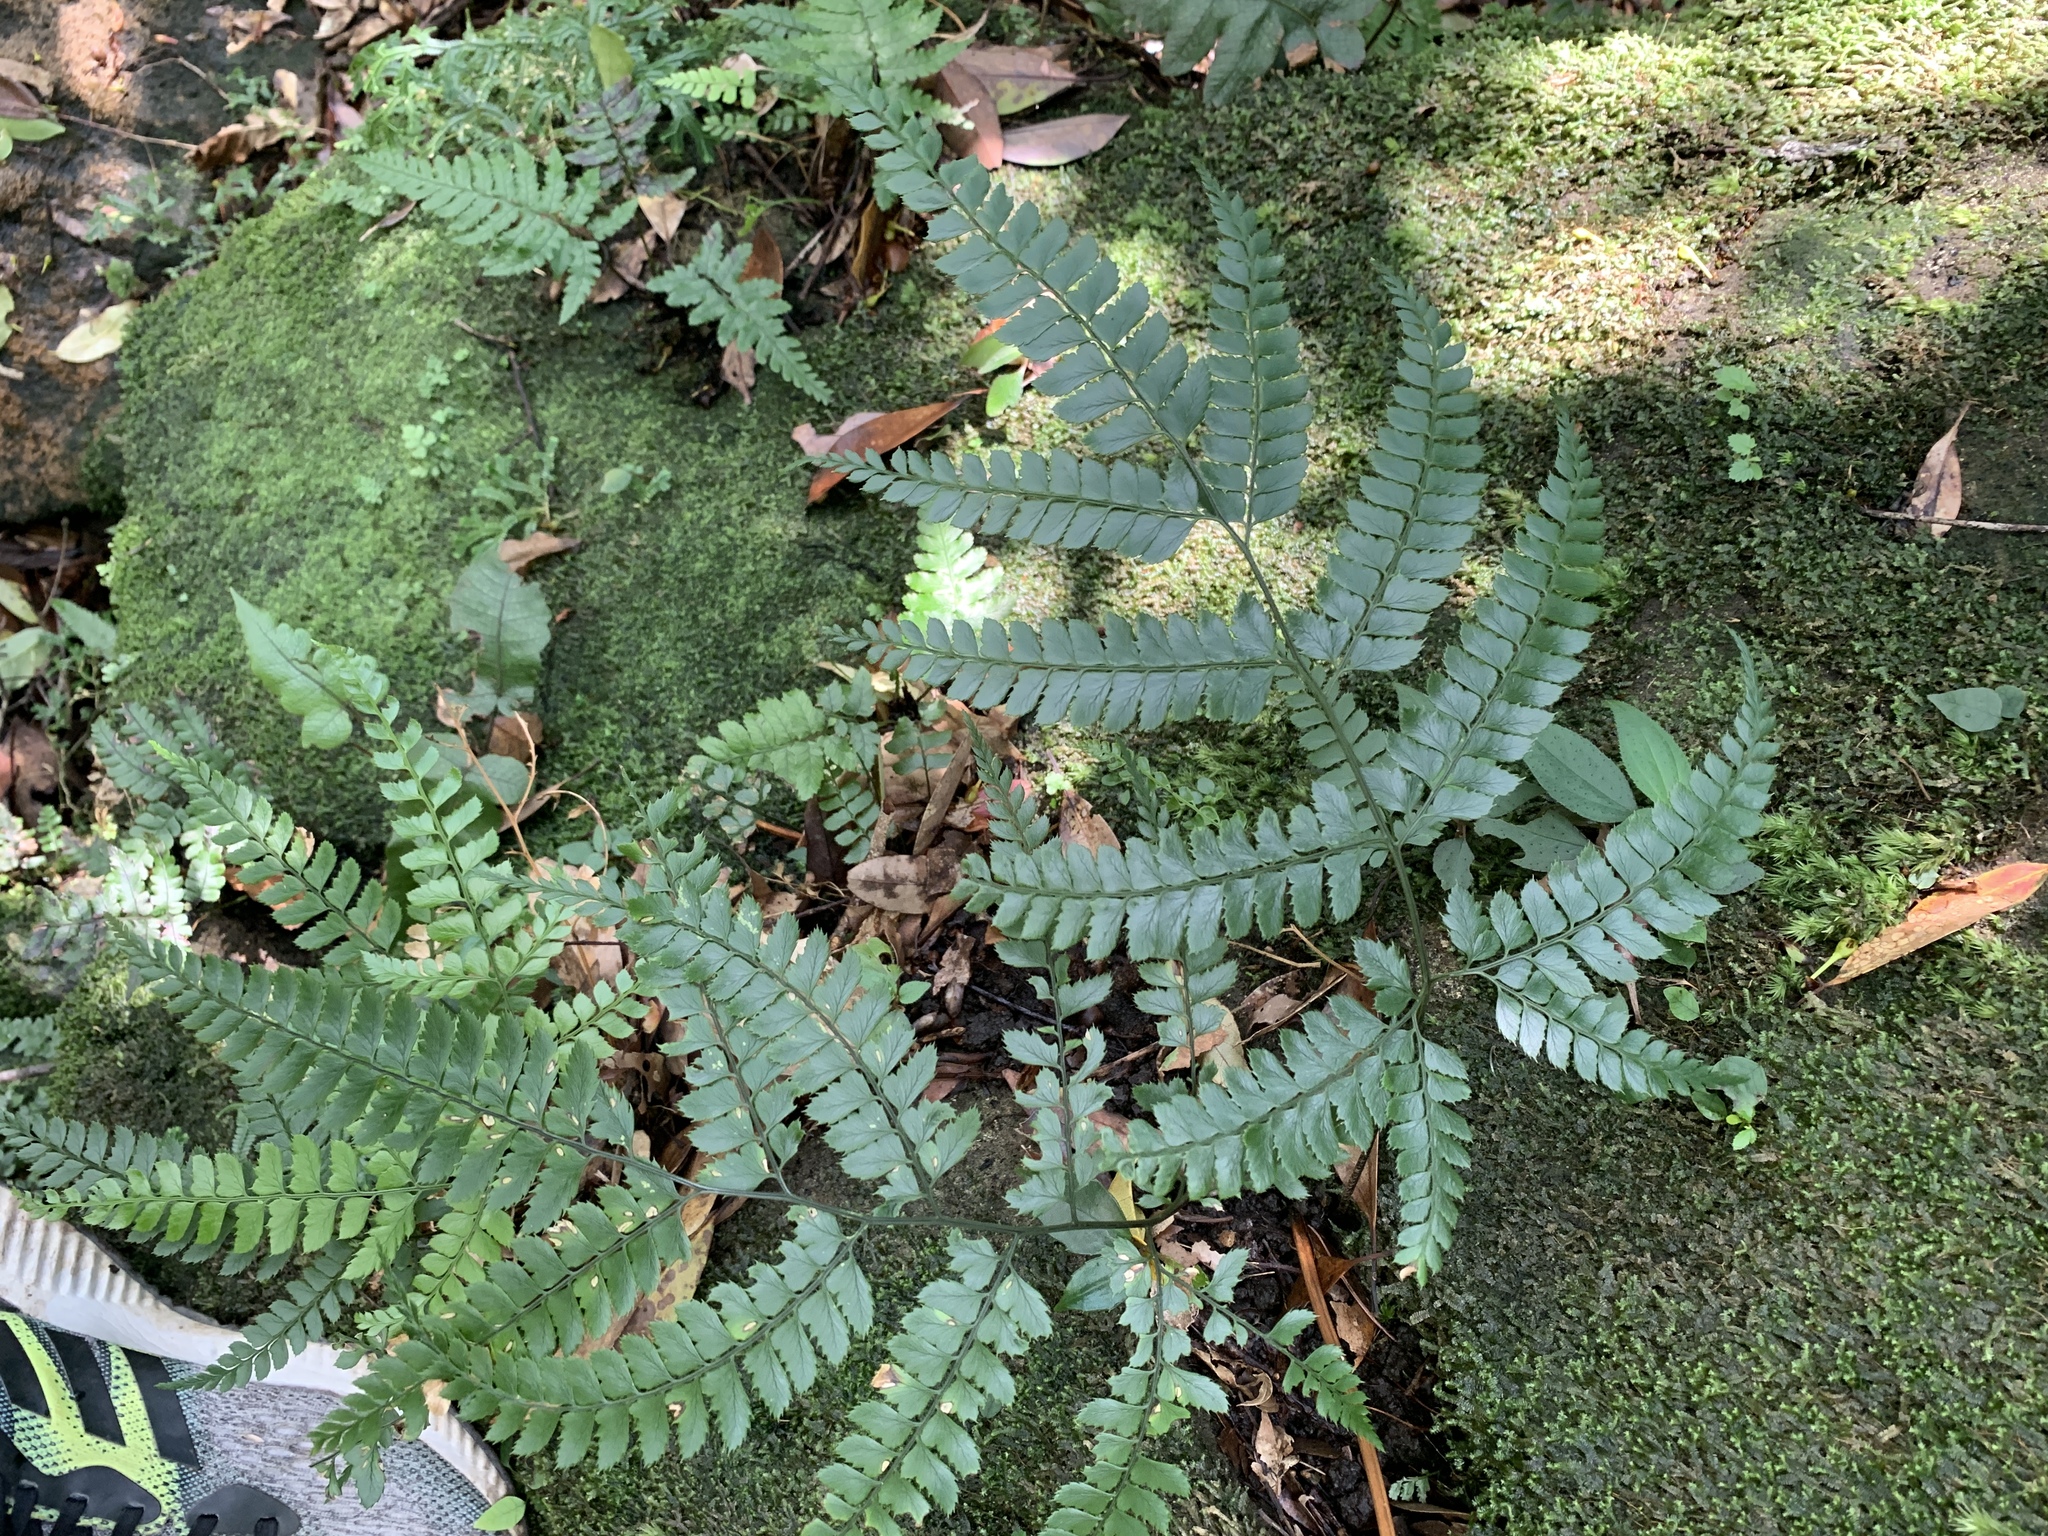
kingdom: Plantae
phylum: Tracheophyta
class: Polypodiopsida
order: Polypodiales
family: Dryopteridaceae
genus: Arachniodes
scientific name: Arachniodes rhomboidea
